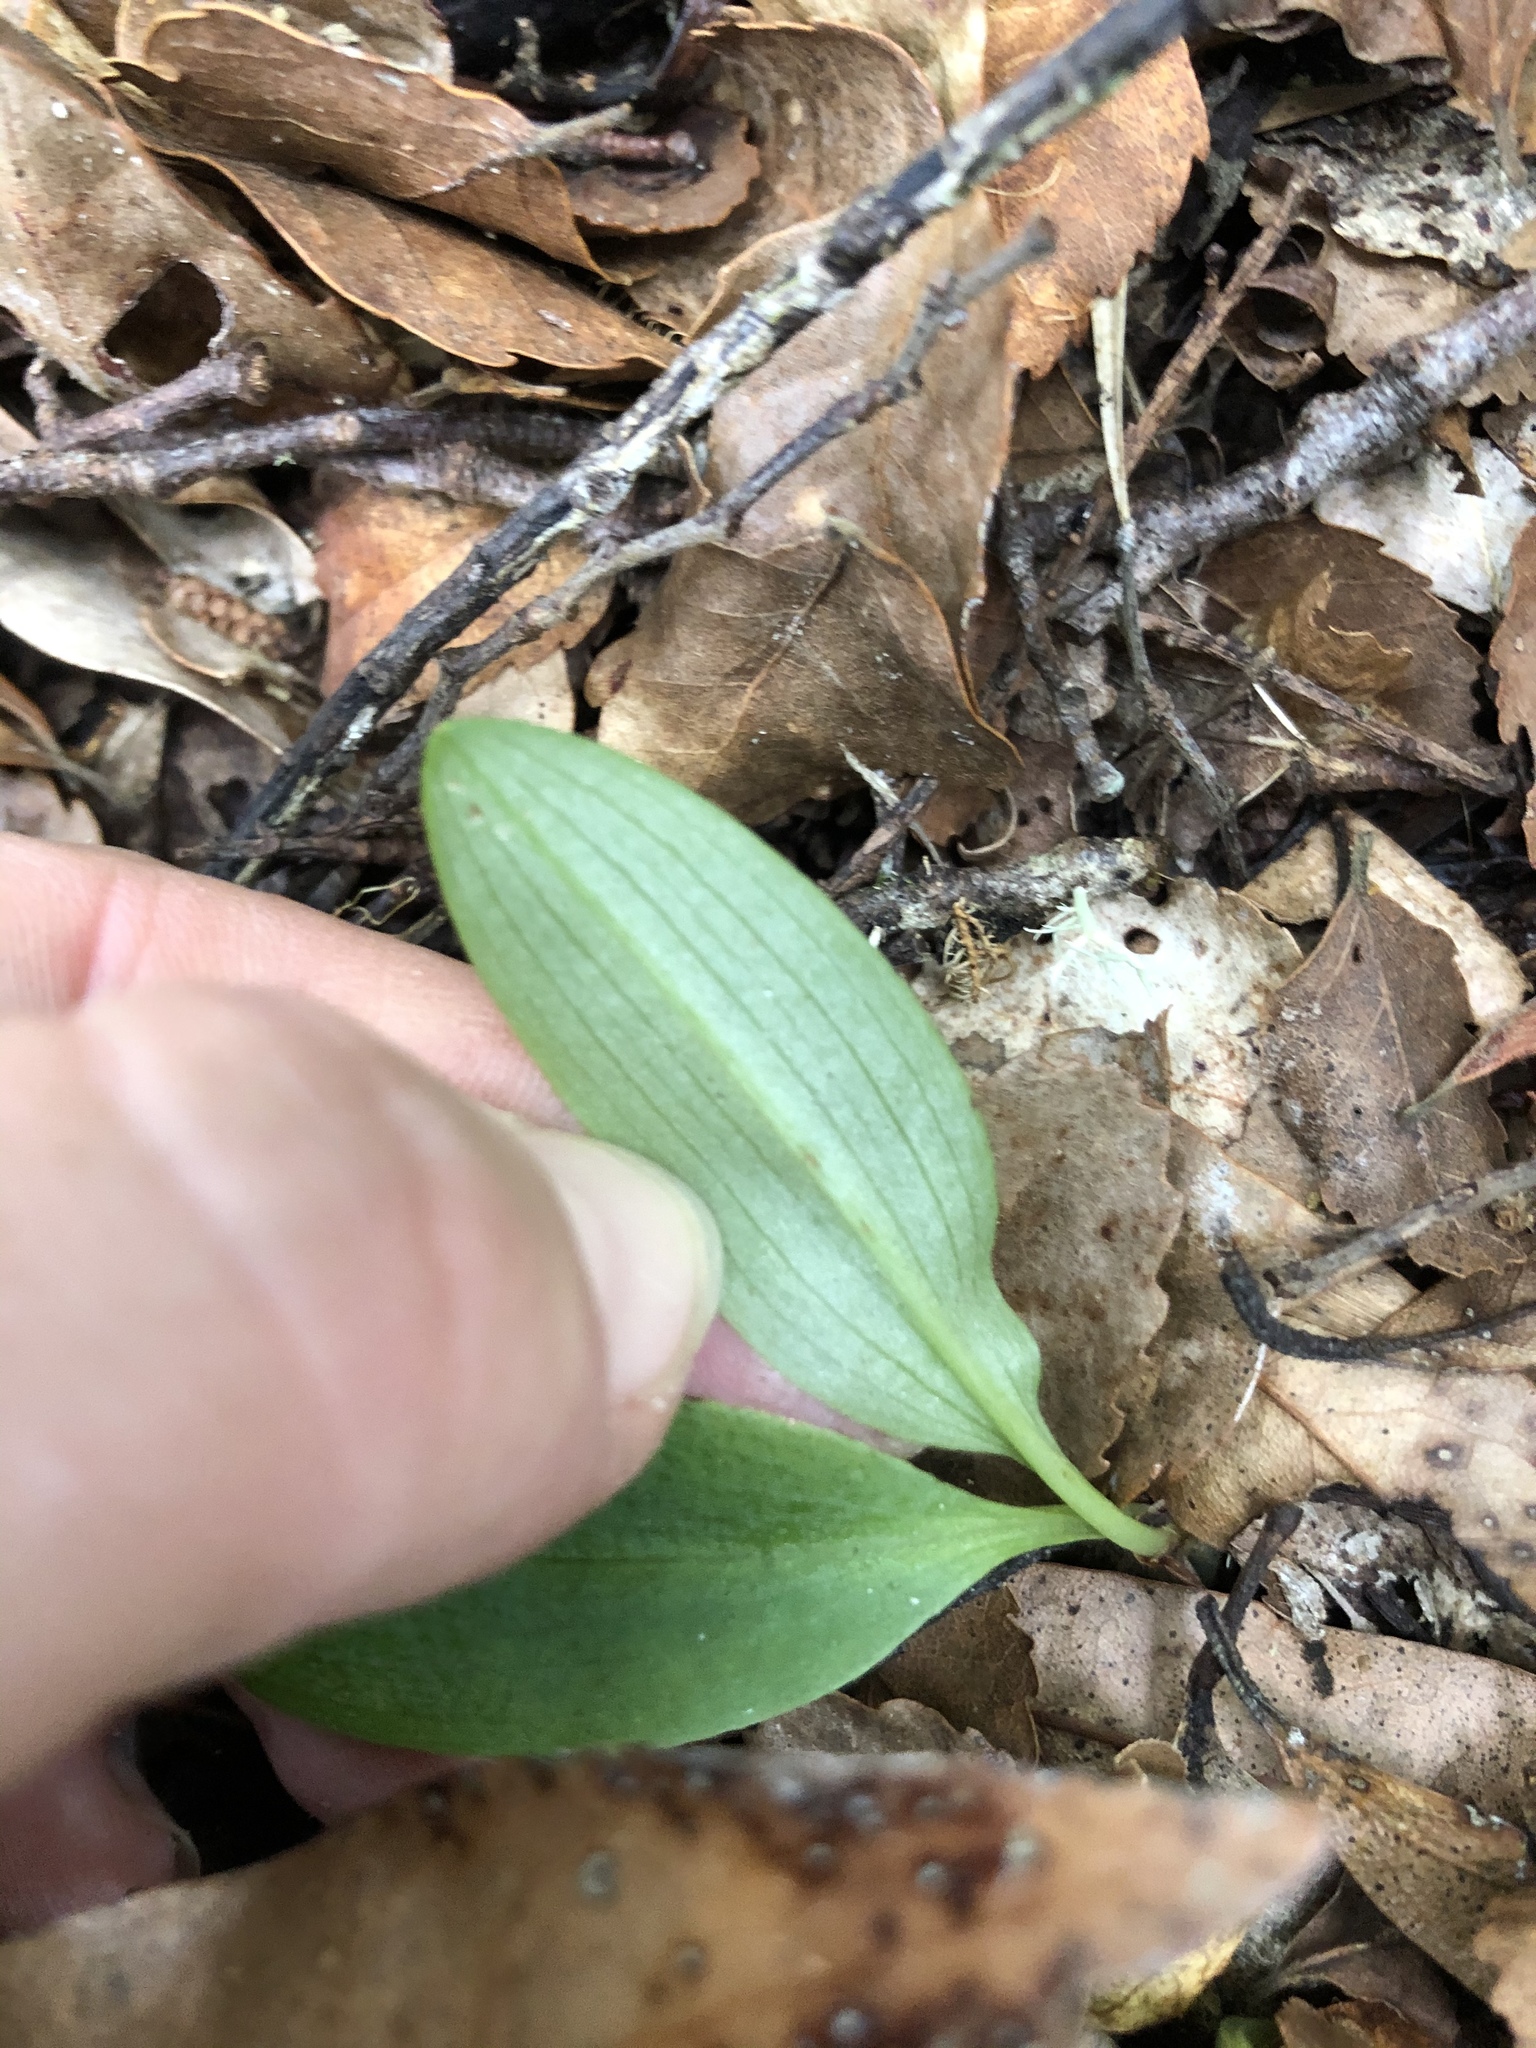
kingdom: Plantae
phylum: Tracheophyta
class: Liliopsida
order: Asparagales
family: Orchidaceae
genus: Chiloglottis
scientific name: Chiloglottis cornuta
